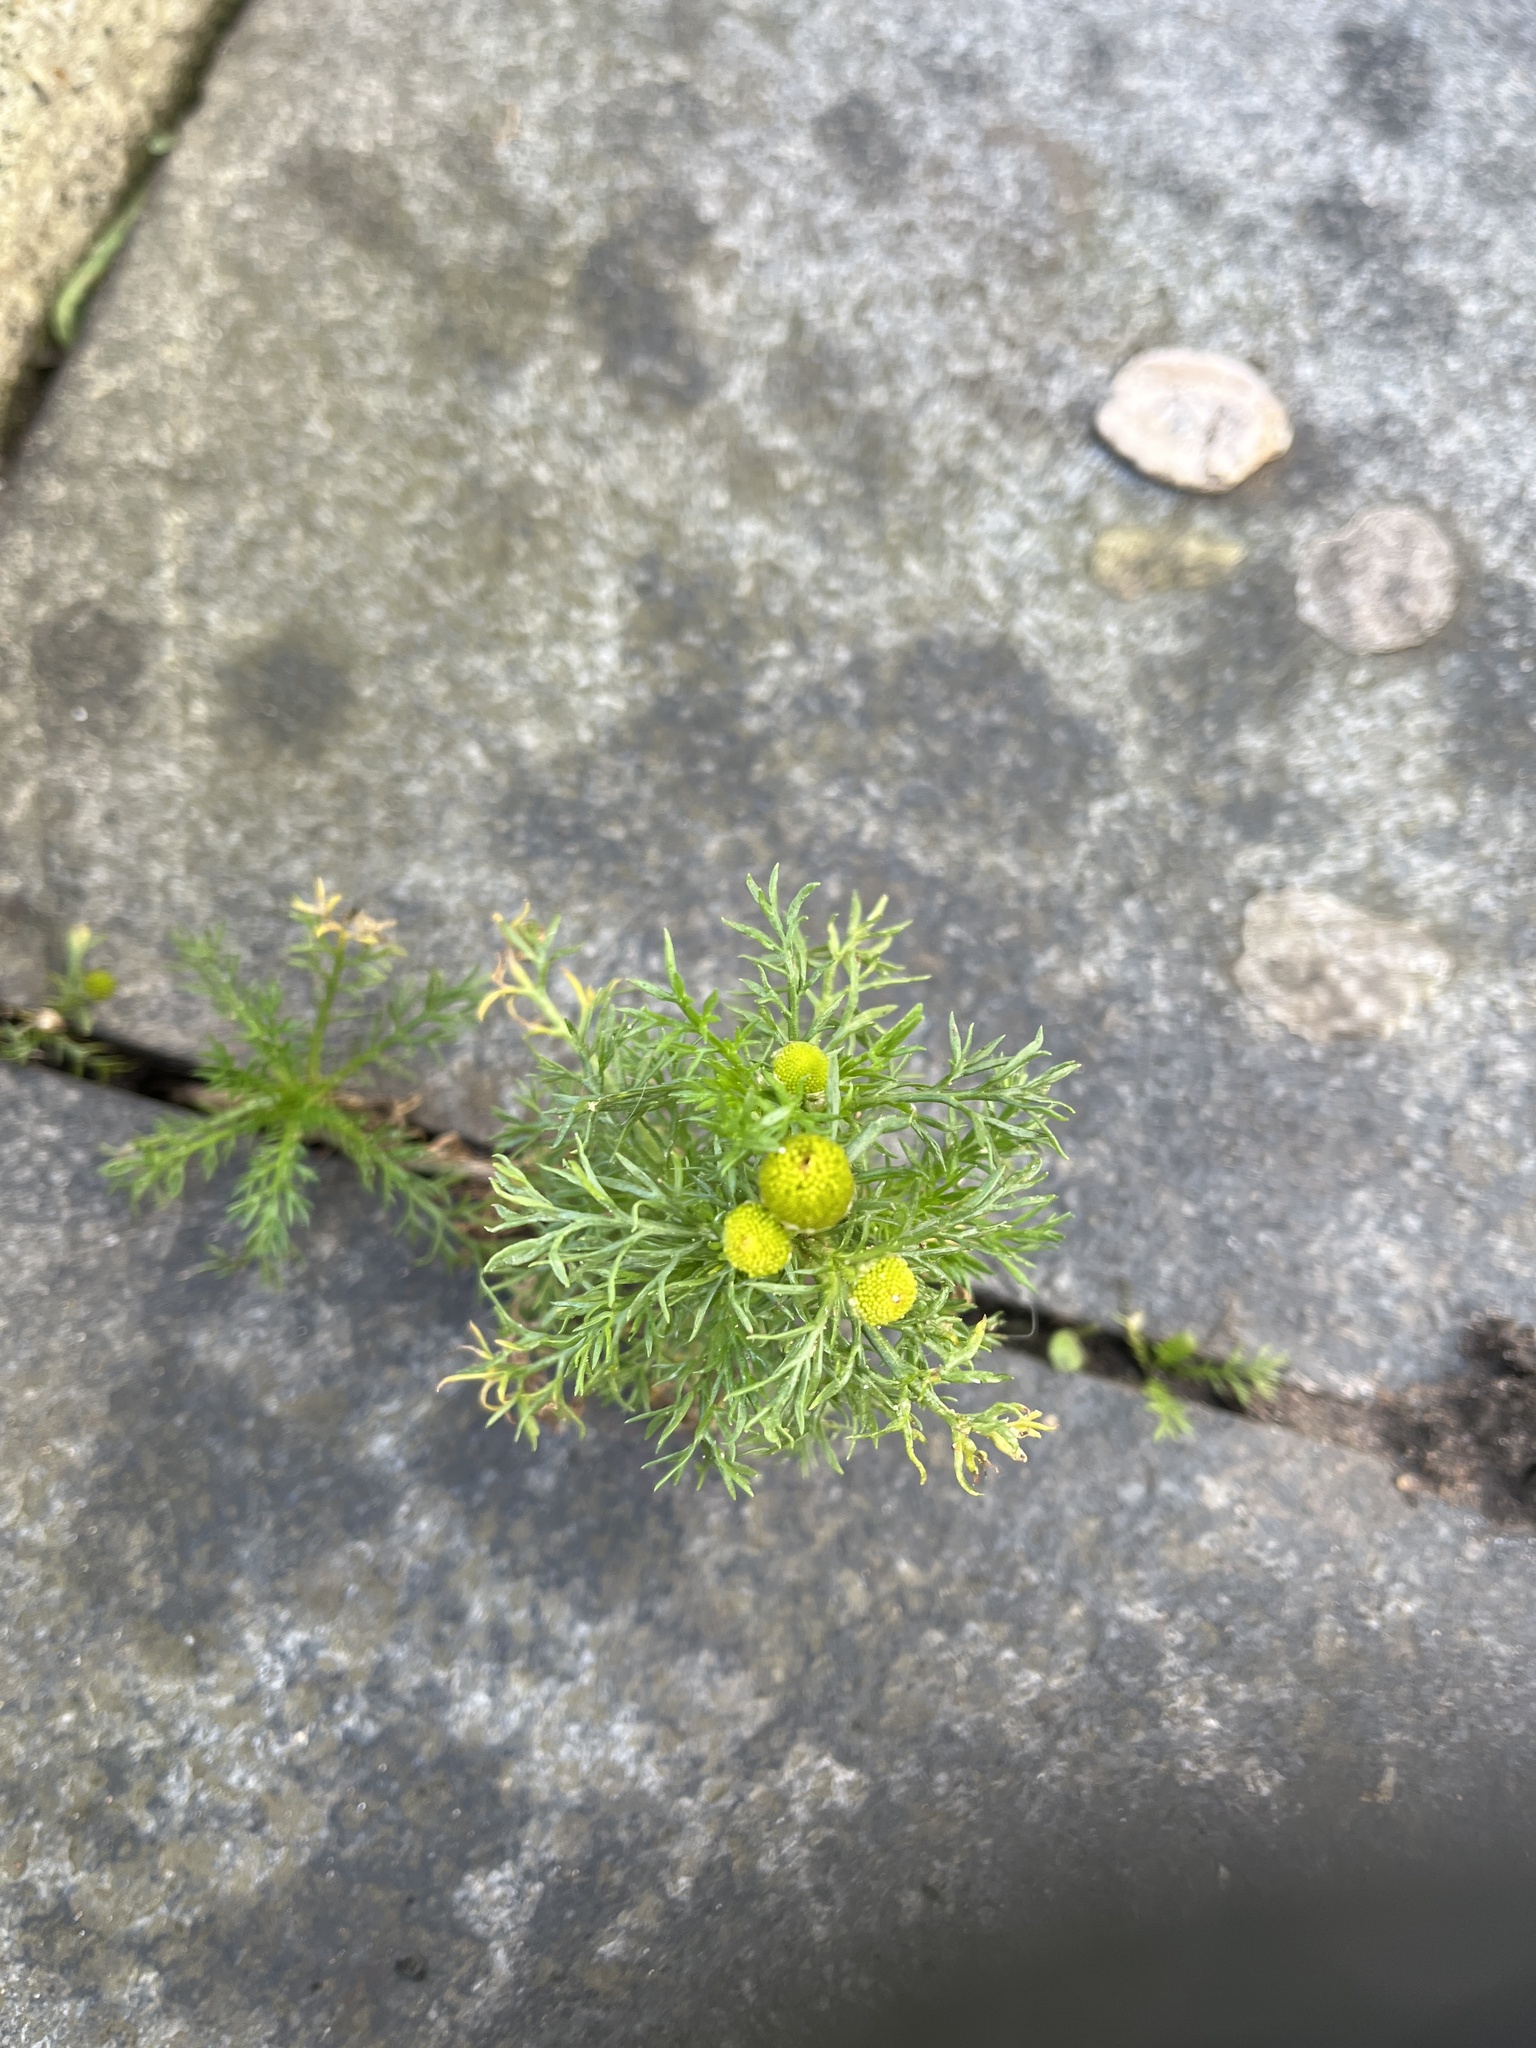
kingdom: Plantae
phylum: Tracheophyta
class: Magnoliopsida
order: Asterales
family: Asteraceae
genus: Matricaria
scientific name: Matricaria discoidea
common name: Disc mayweed
